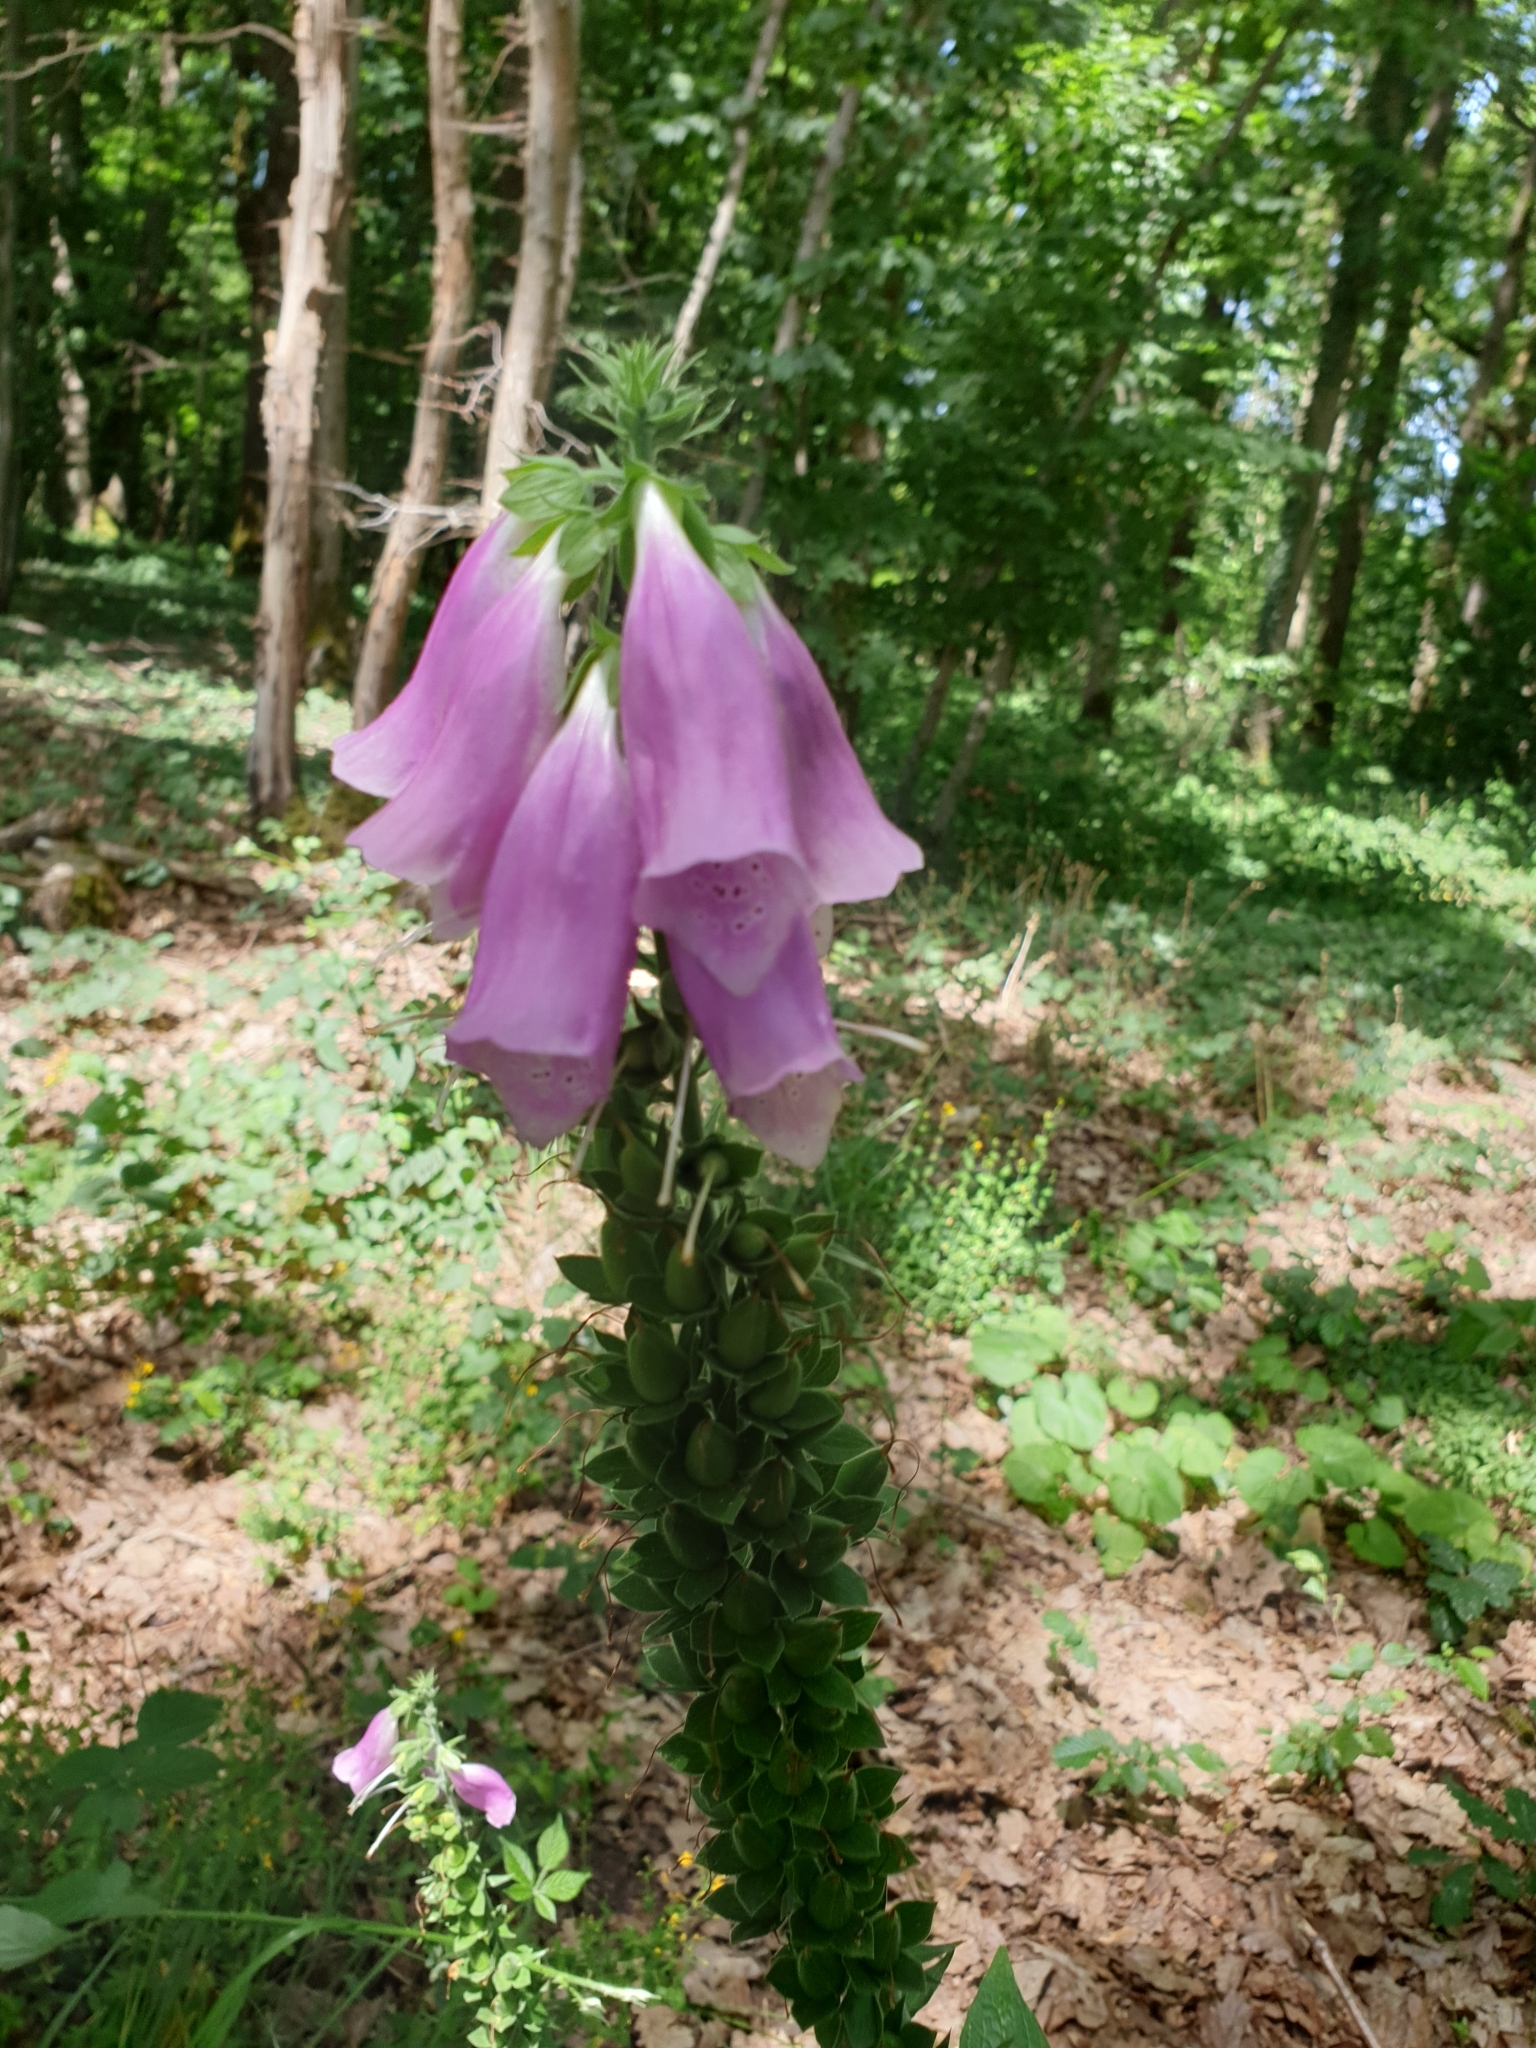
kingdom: Plantae
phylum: Tracheophyta
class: Magnoliopsida
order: Lamiales
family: Plantaginaceae
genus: Digitalis
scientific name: Digitalis purpurea
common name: Foxglove
